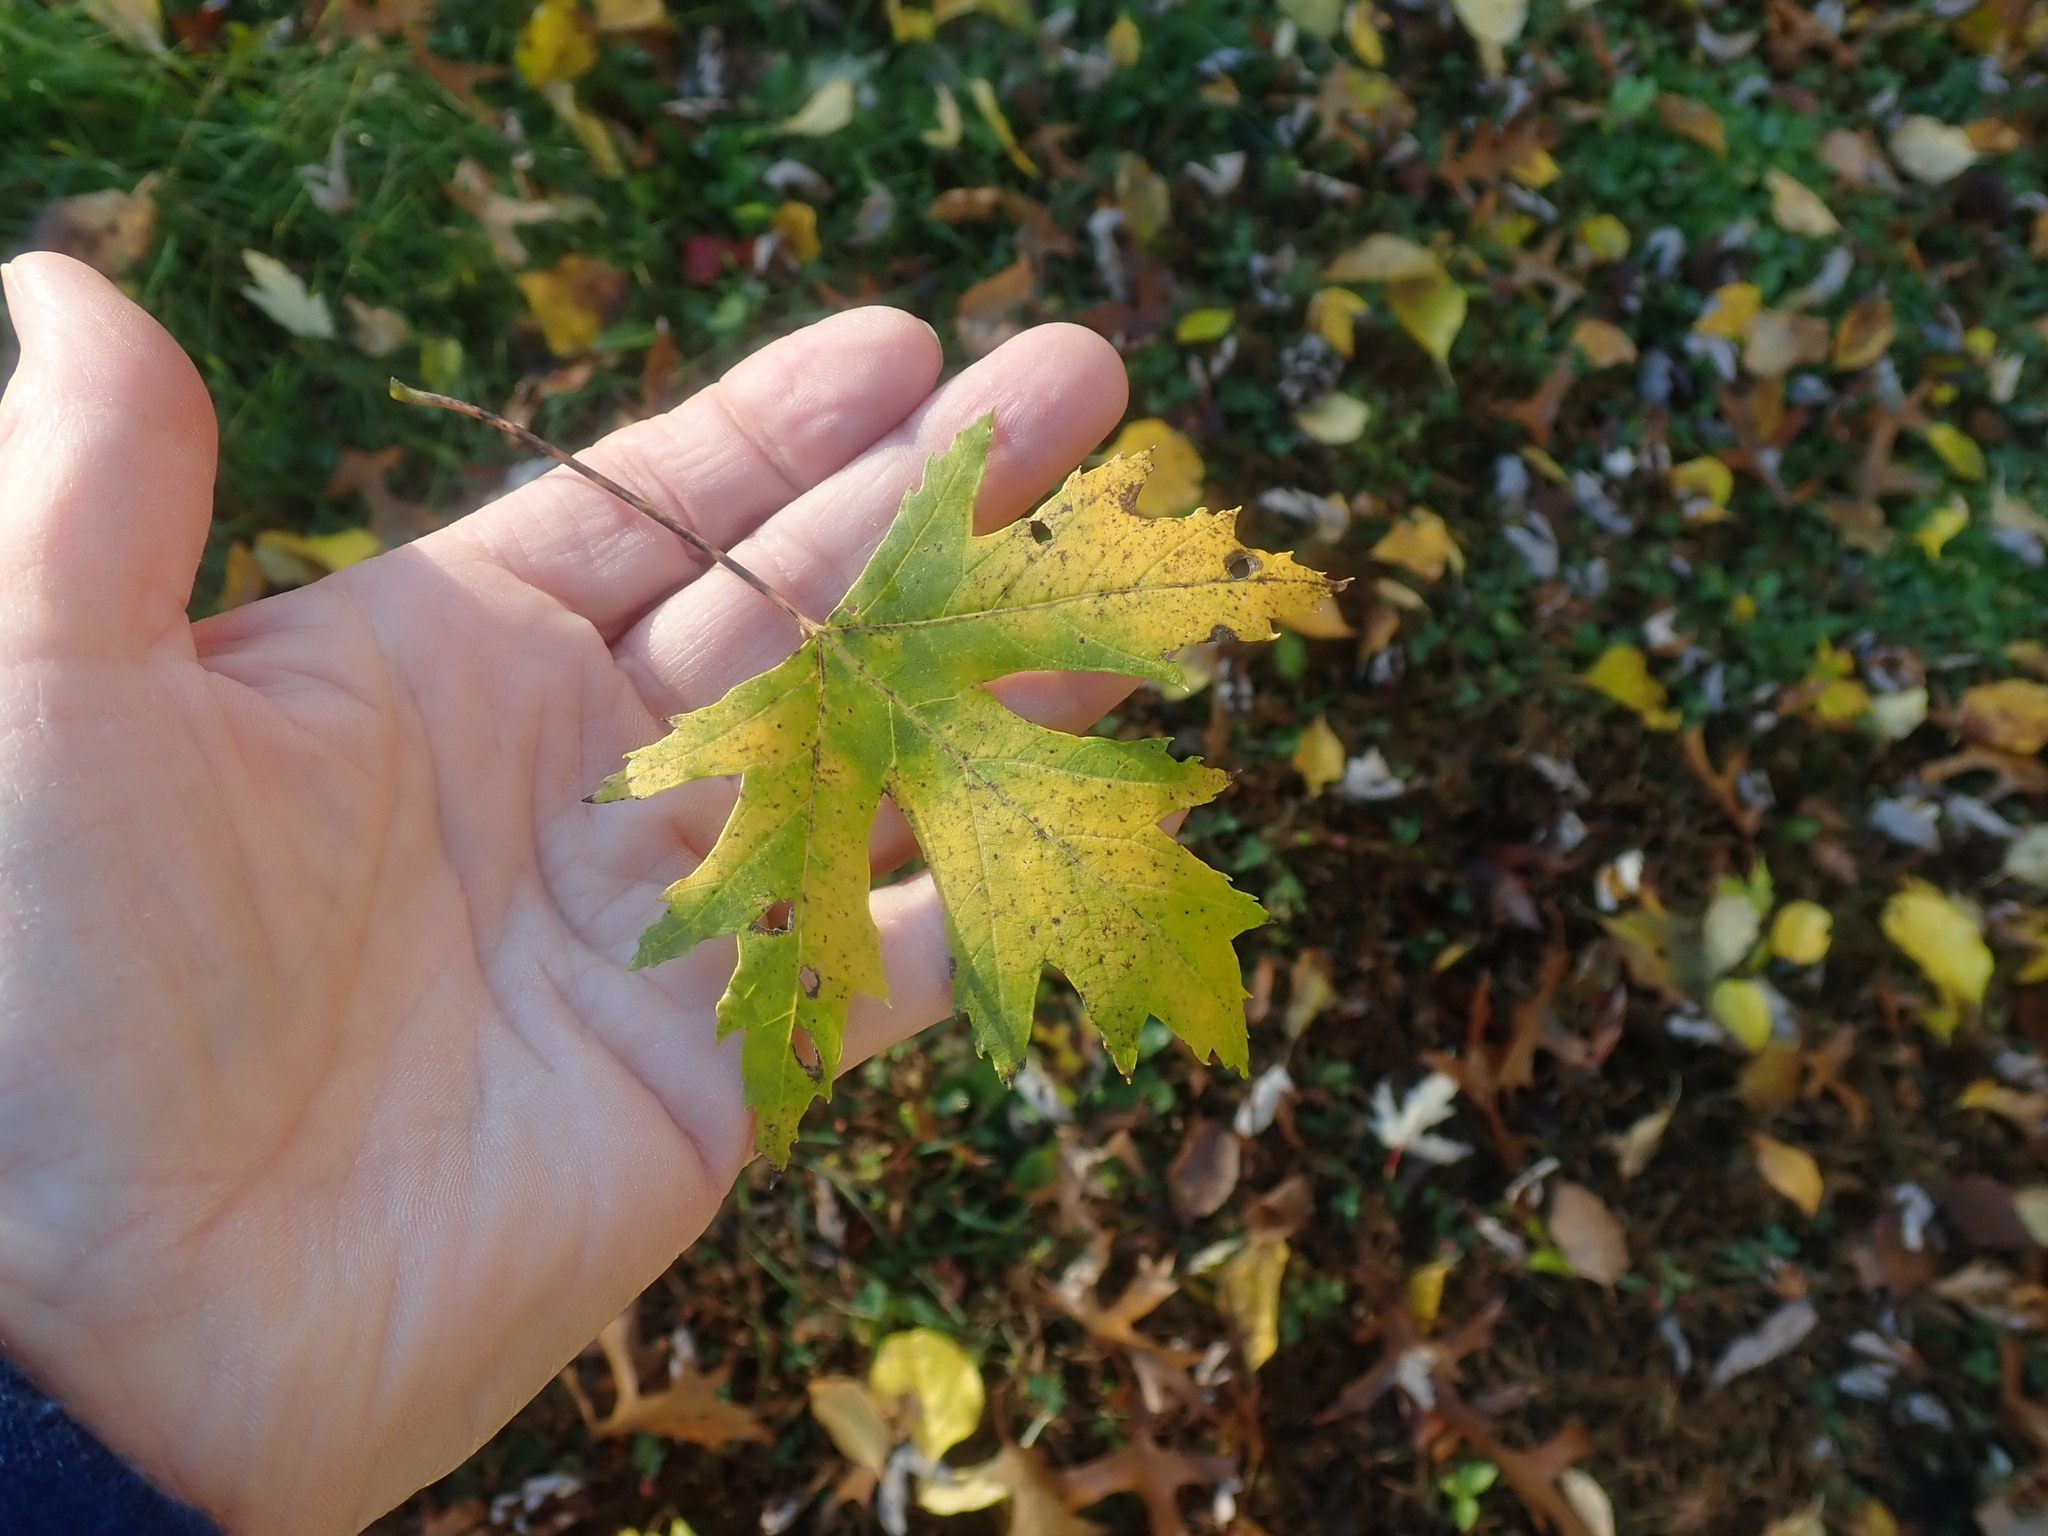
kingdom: Plantae
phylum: Tracheophyta
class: Magnoliopsida
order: Sapindales
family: Sapindaceae
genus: Acer
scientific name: Acer saccharinum
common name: Silver maple
